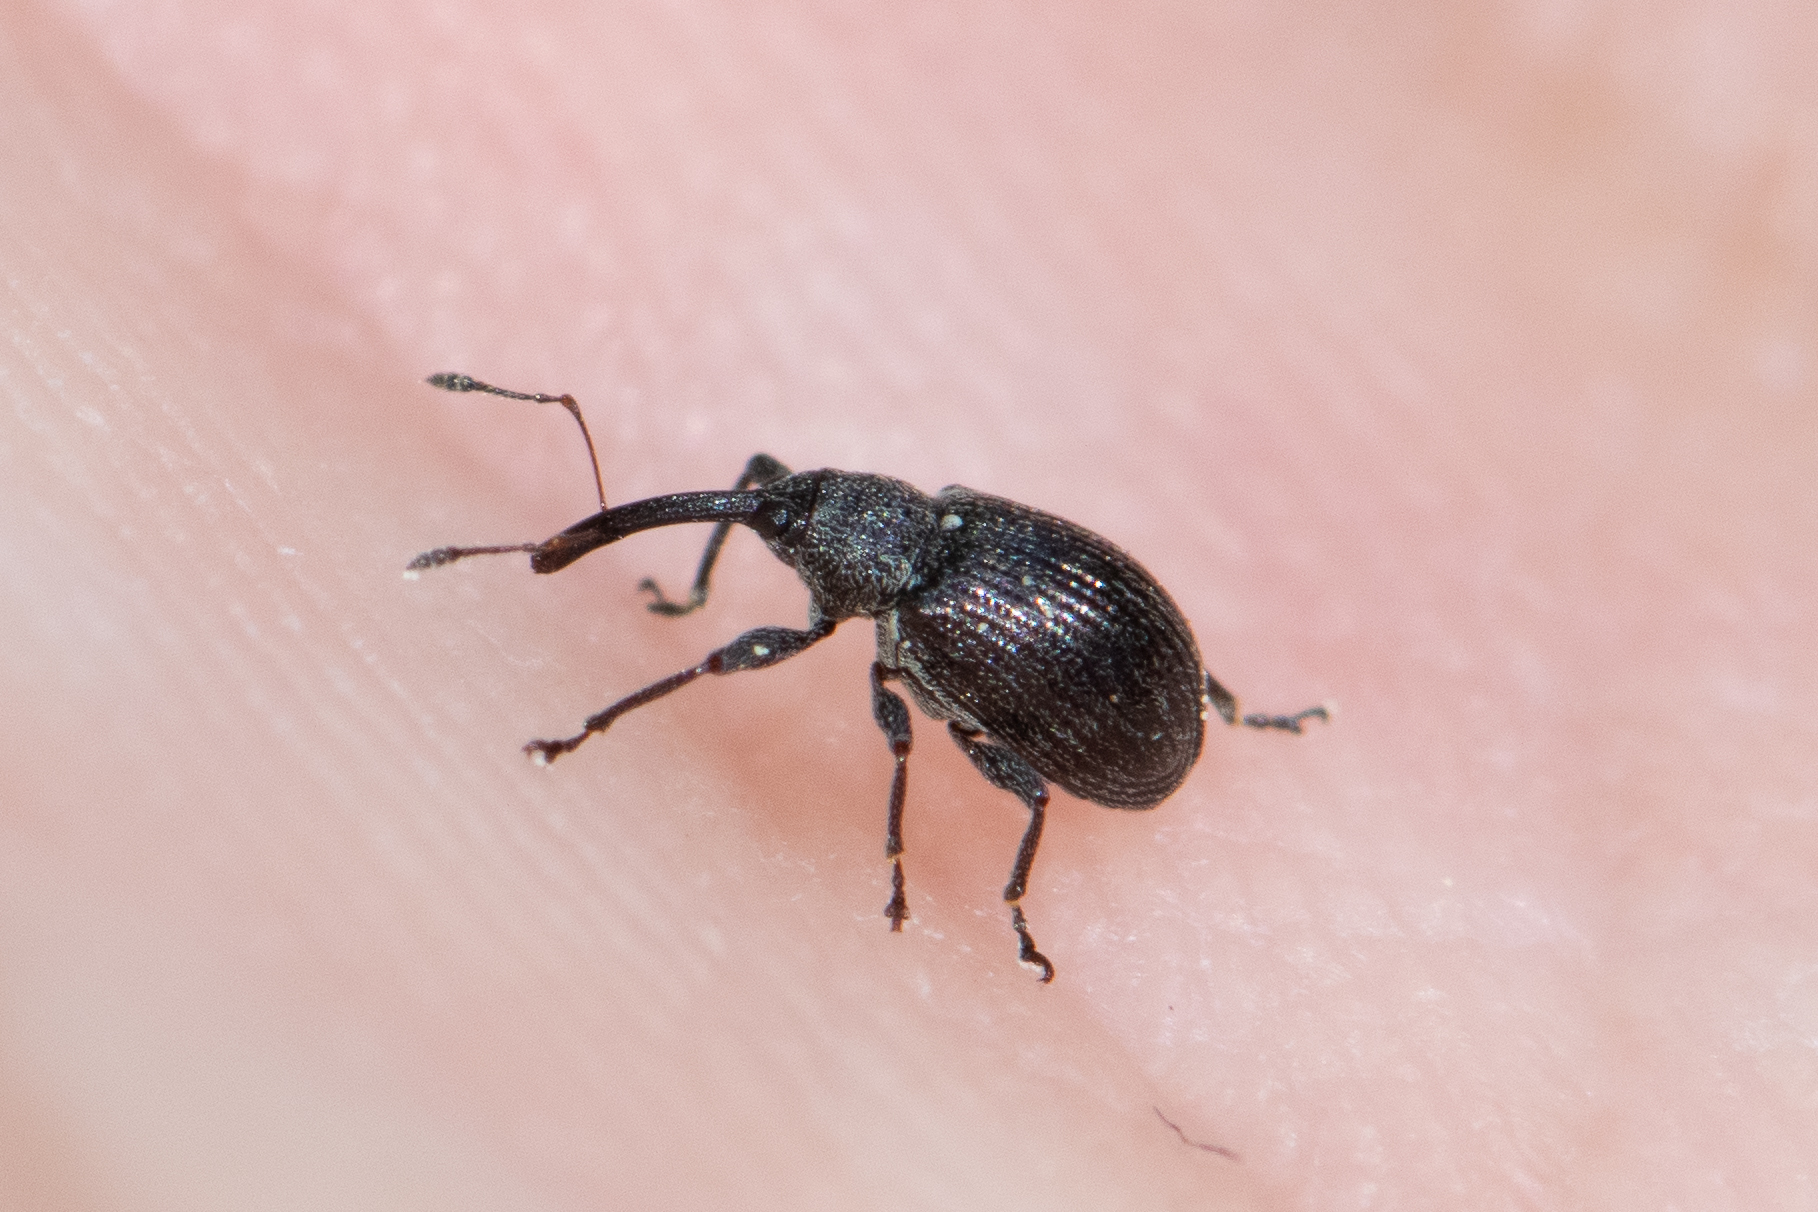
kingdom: Animalia
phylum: Arthropoda
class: Insecta
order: Coleoptera
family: Curculionidae
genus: Anthonomus
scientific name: Anthonomus rubi
